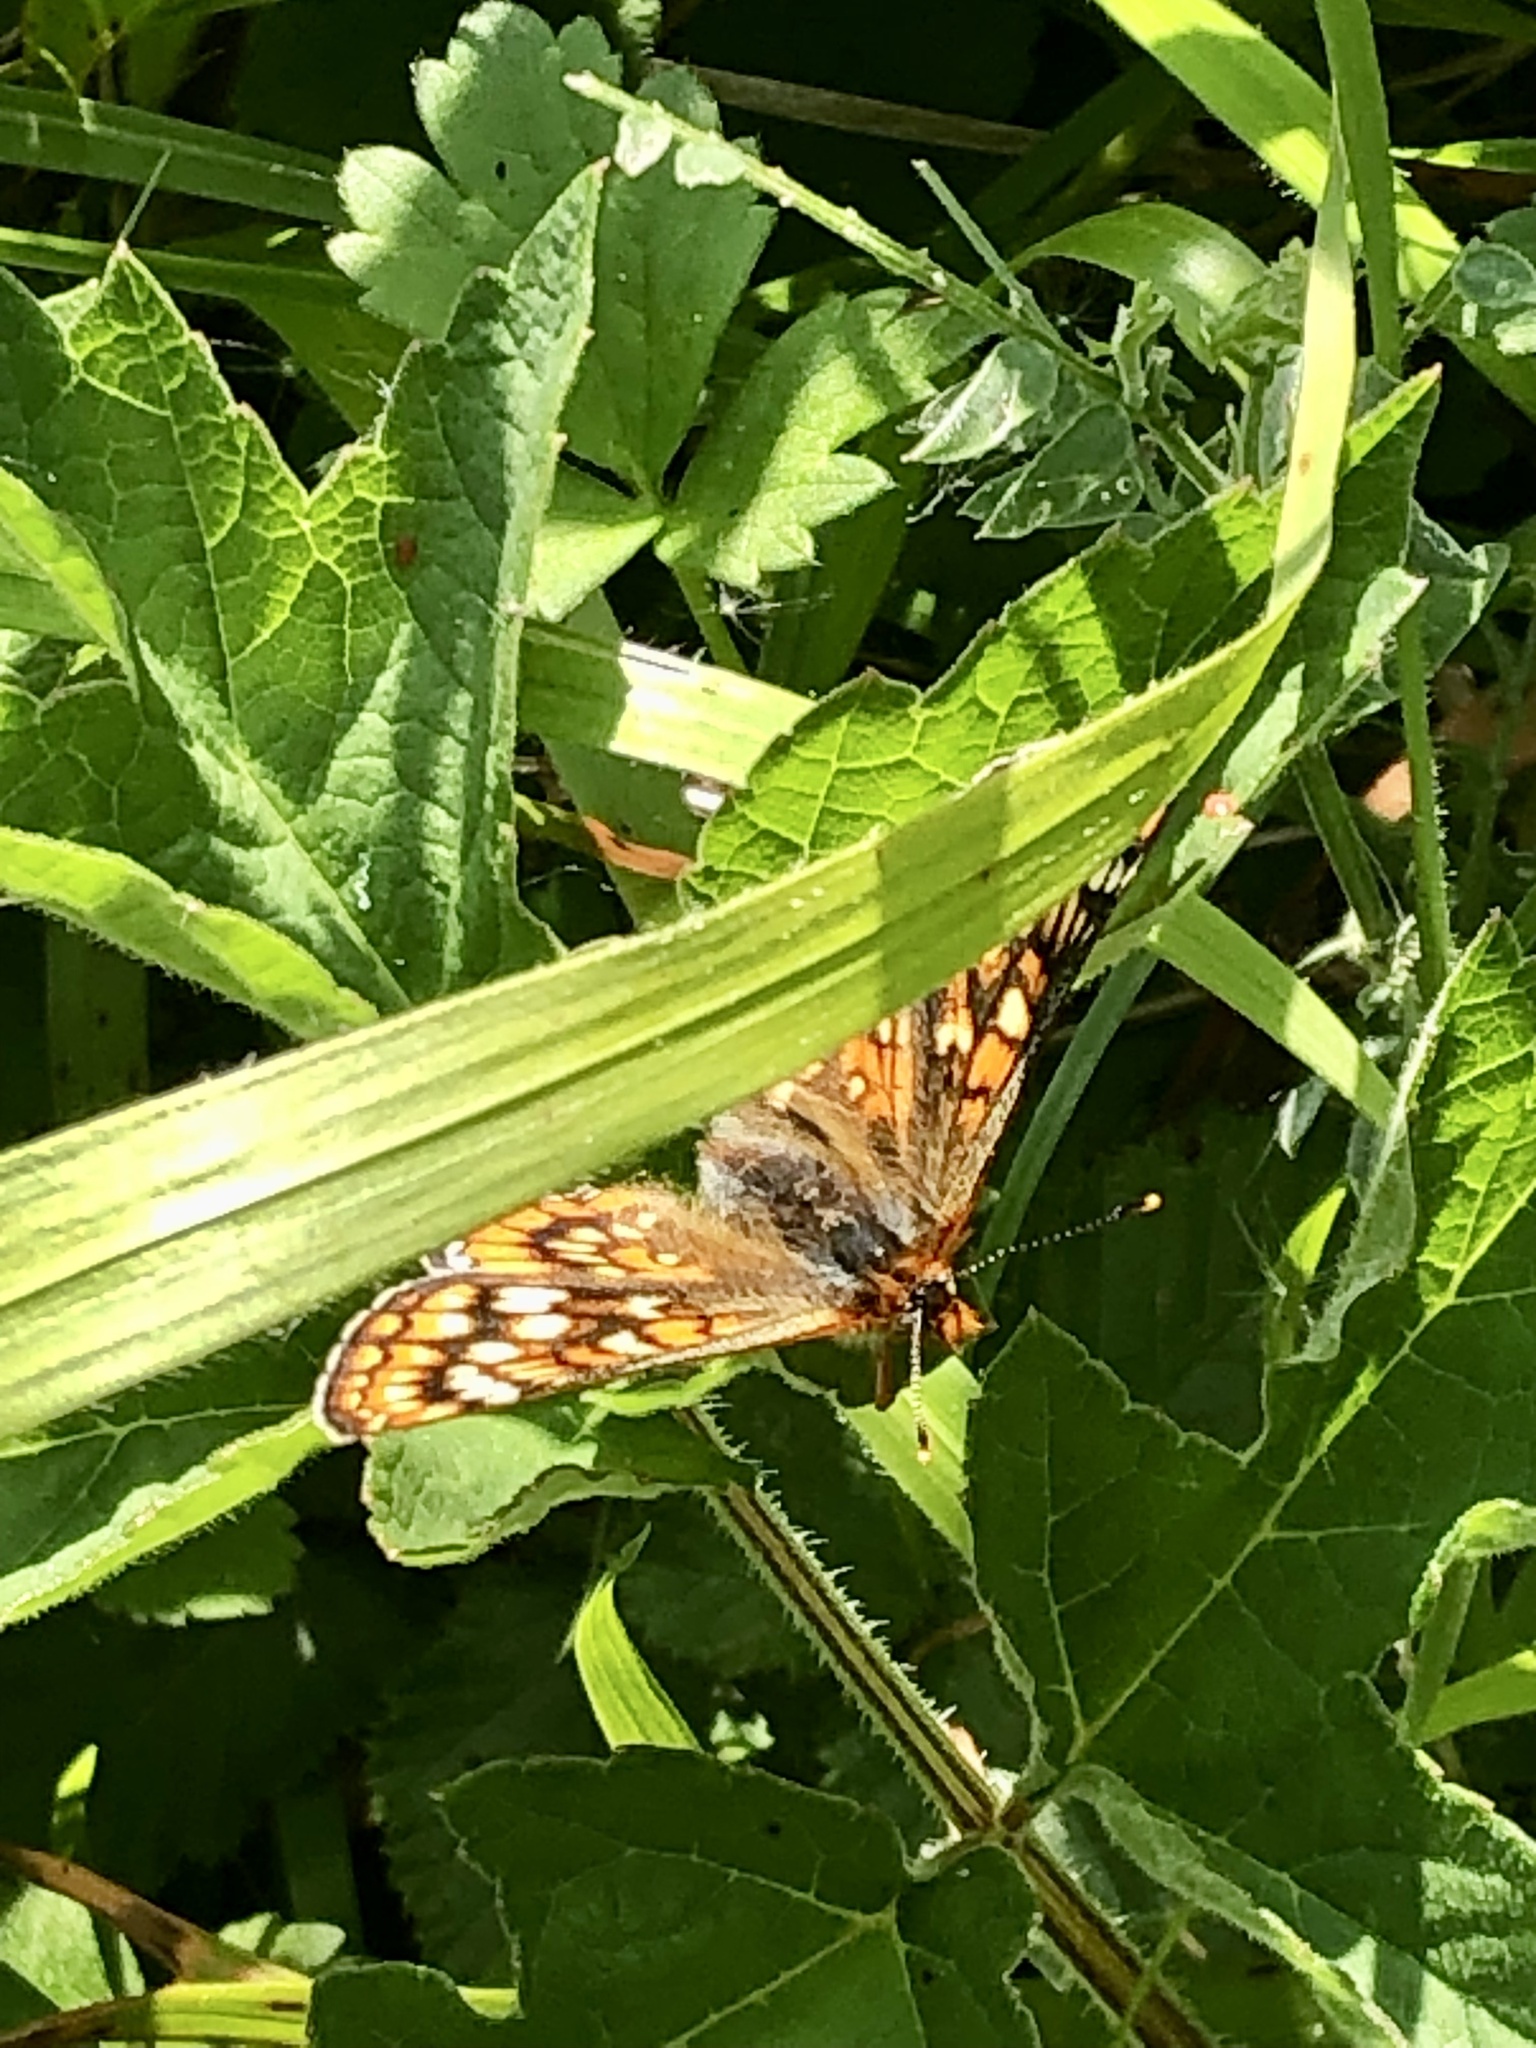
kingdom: Animalia
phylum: Arthropoda
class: Insecta
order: Lepidoptera
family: Nymphalidae
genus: Euphydryas
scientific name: Euphydryas aurinia
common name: Marsh fritillary
